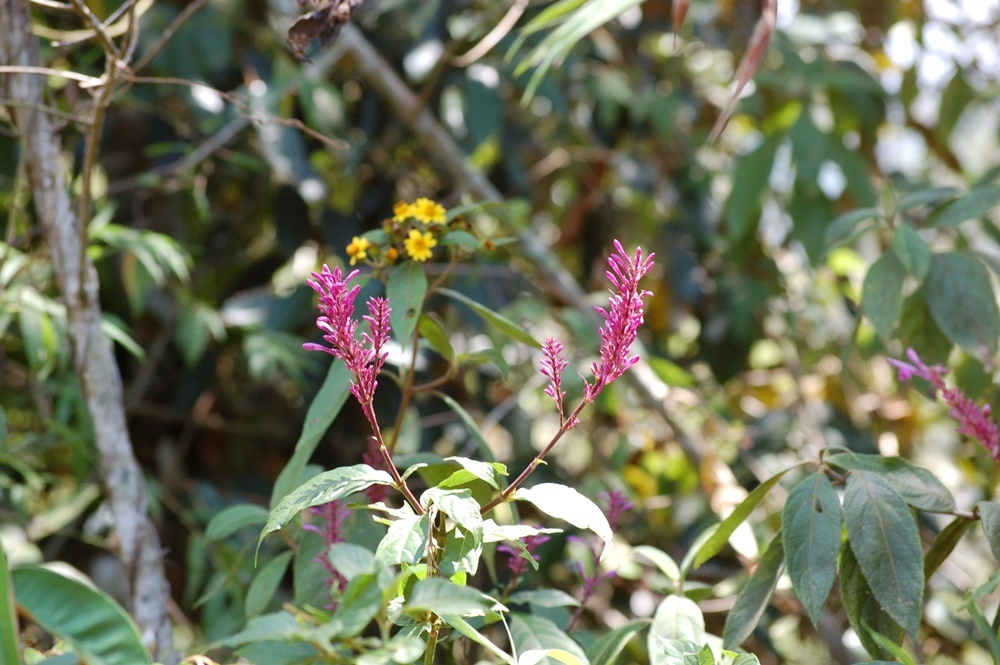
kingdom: Plantae
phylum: Tracheophyta
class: Magnoliopsida
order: Lamiales
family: Acanthaceae
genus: Odontonema
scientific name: Odontonema callistachyum
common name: Firespike
